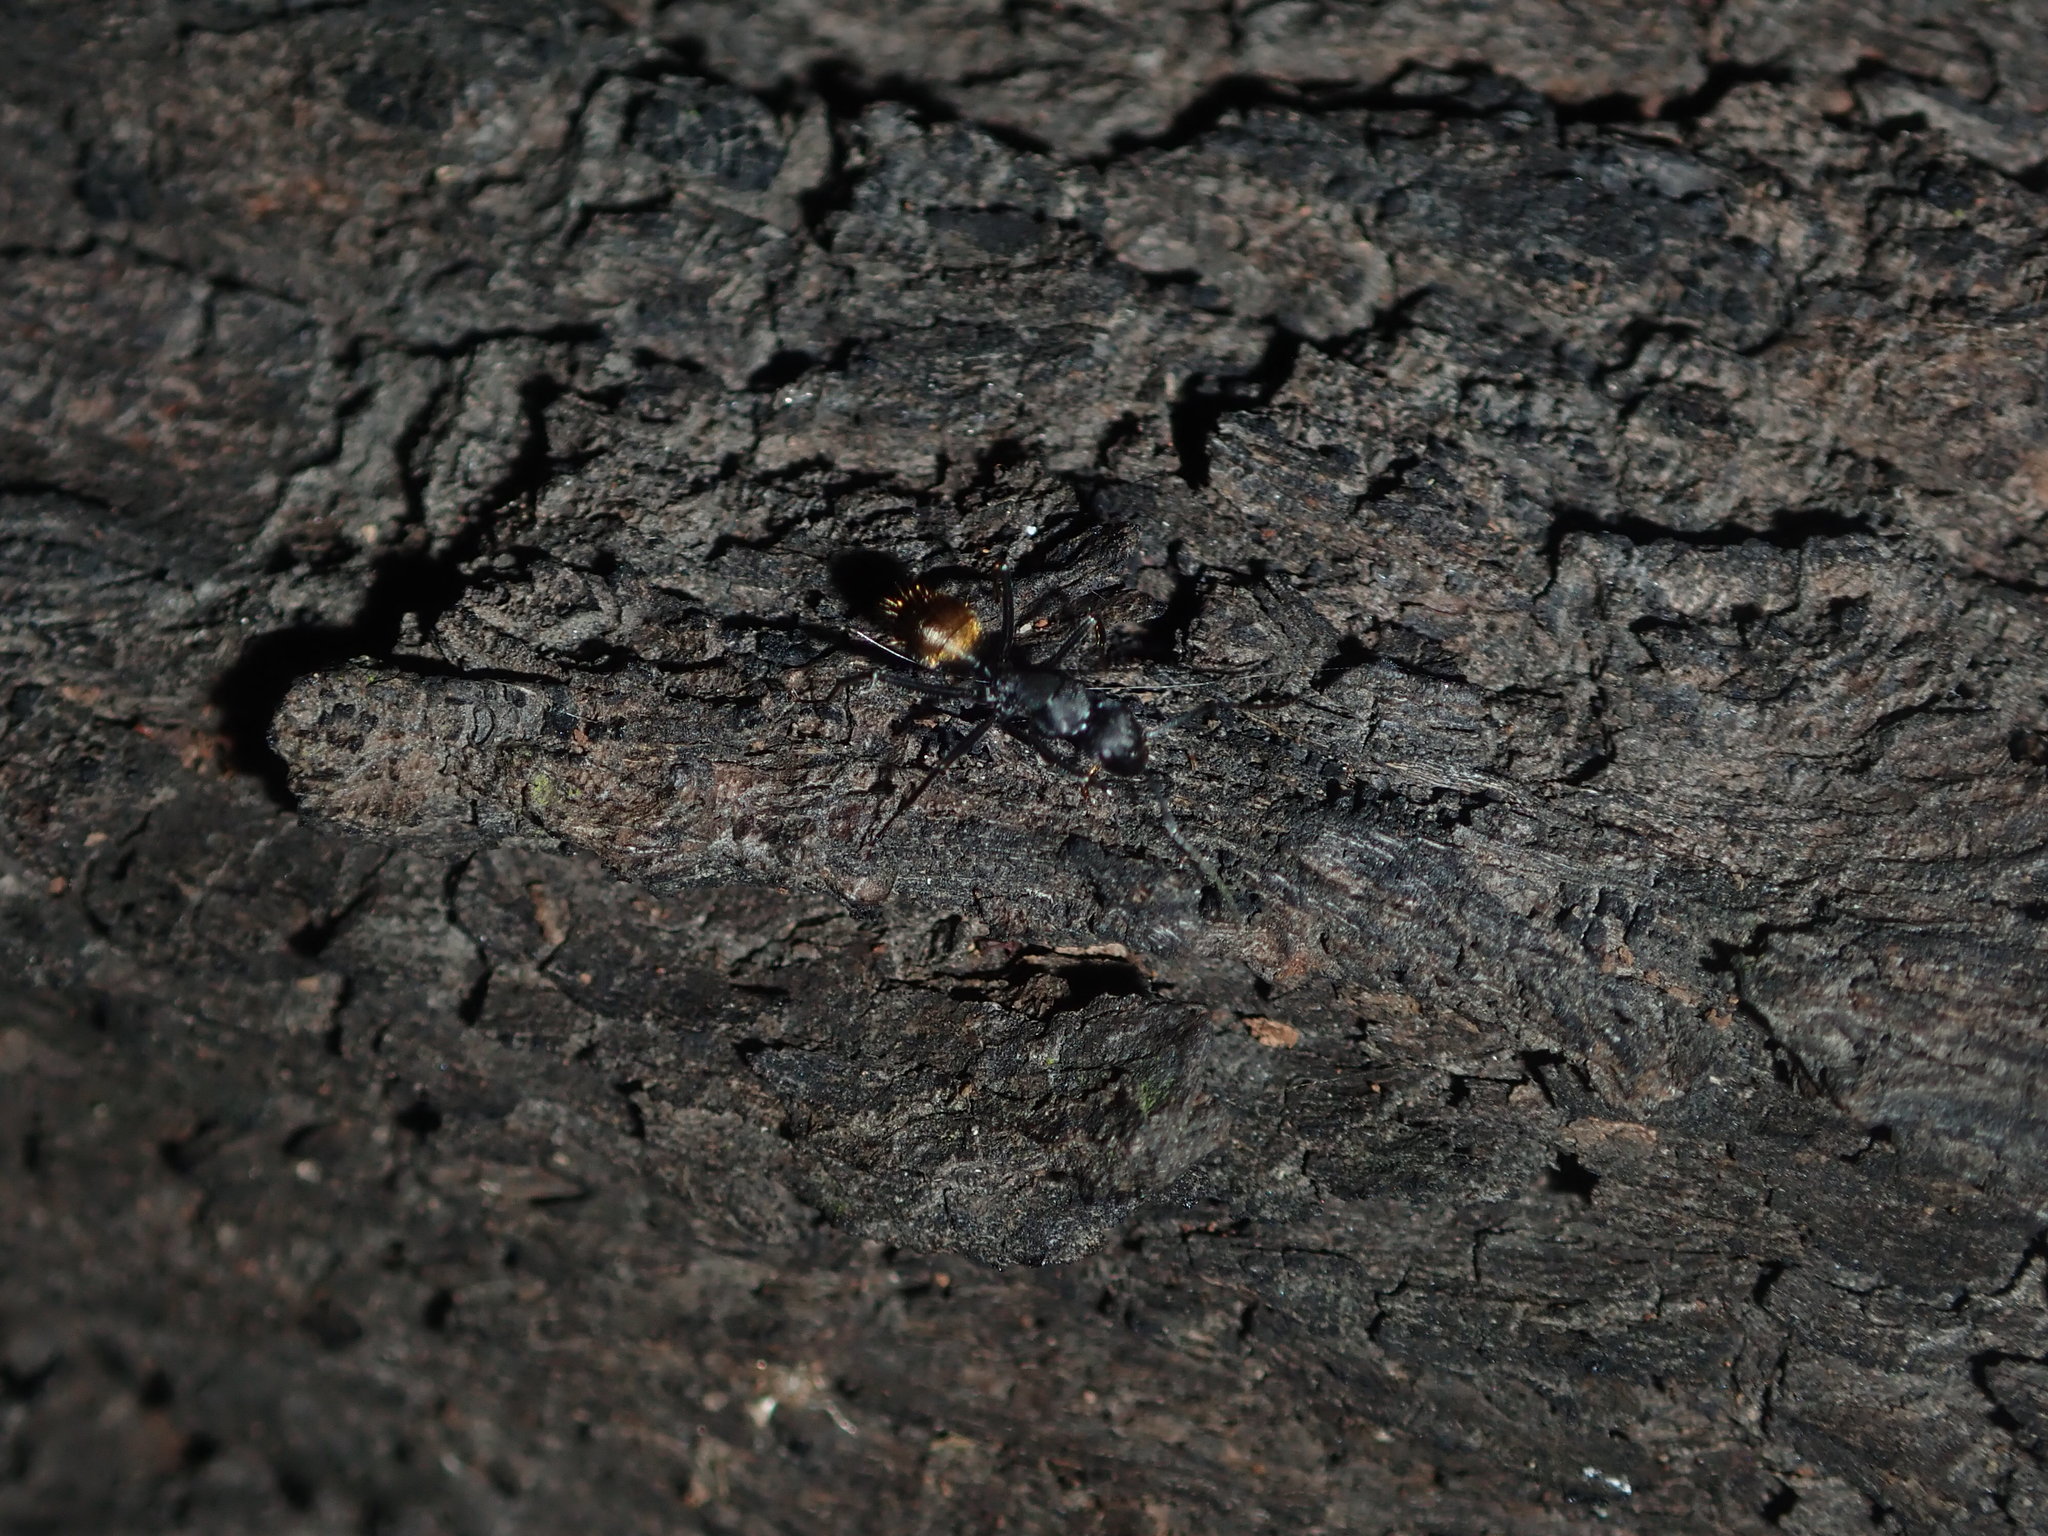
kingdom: Animalia
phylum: Arthropoda
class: Insecta
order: Hymenoptera
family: Formicidae
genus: Camponotus
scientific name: Camponotus aeneopilosus
